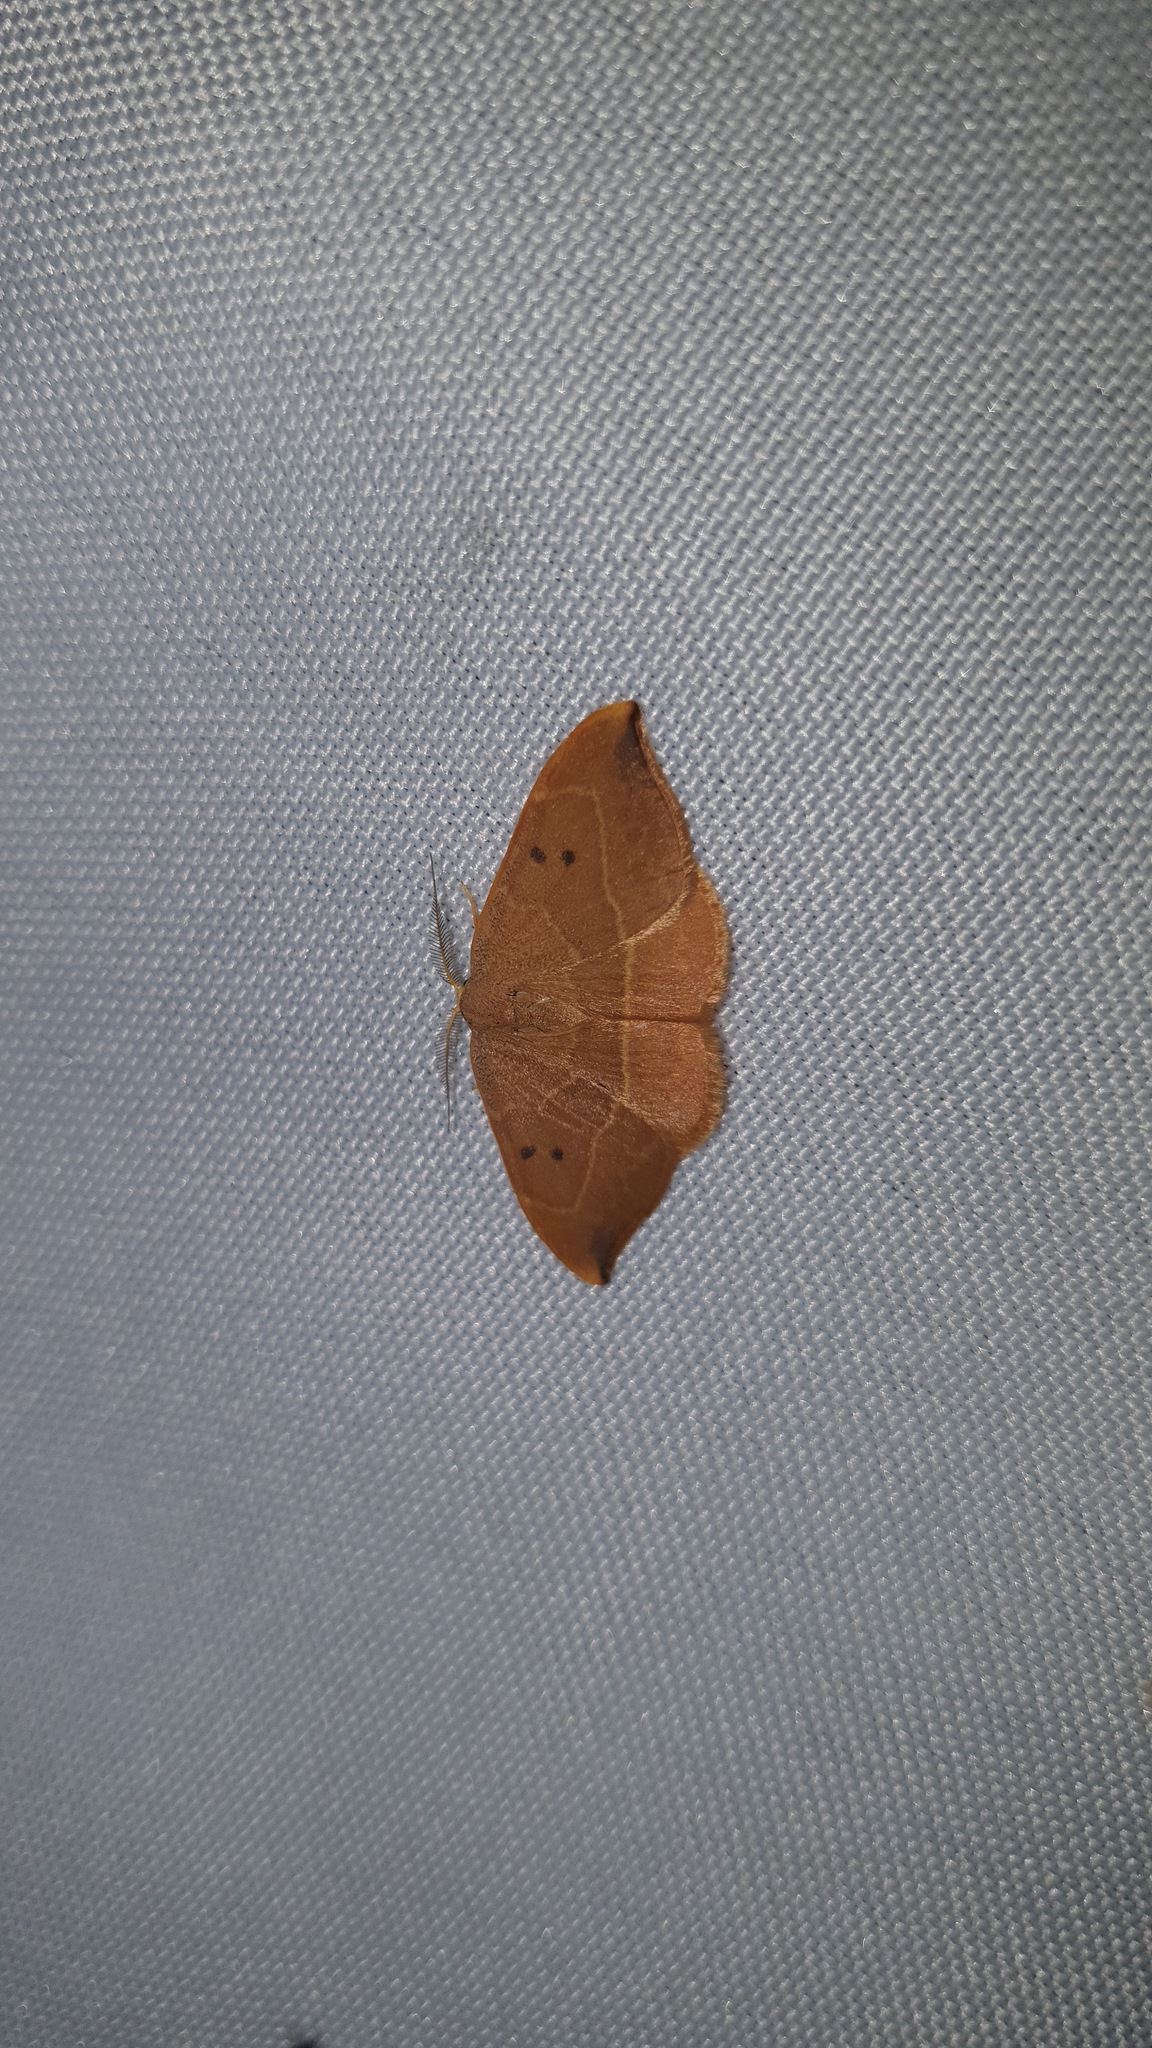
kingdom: Animalia
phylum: Arthropoda
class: Insecta
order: Lepidoptera
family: Drepanidae
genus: Watsonalla
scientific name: Watsonalla binaria
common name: Oak hook-tip
